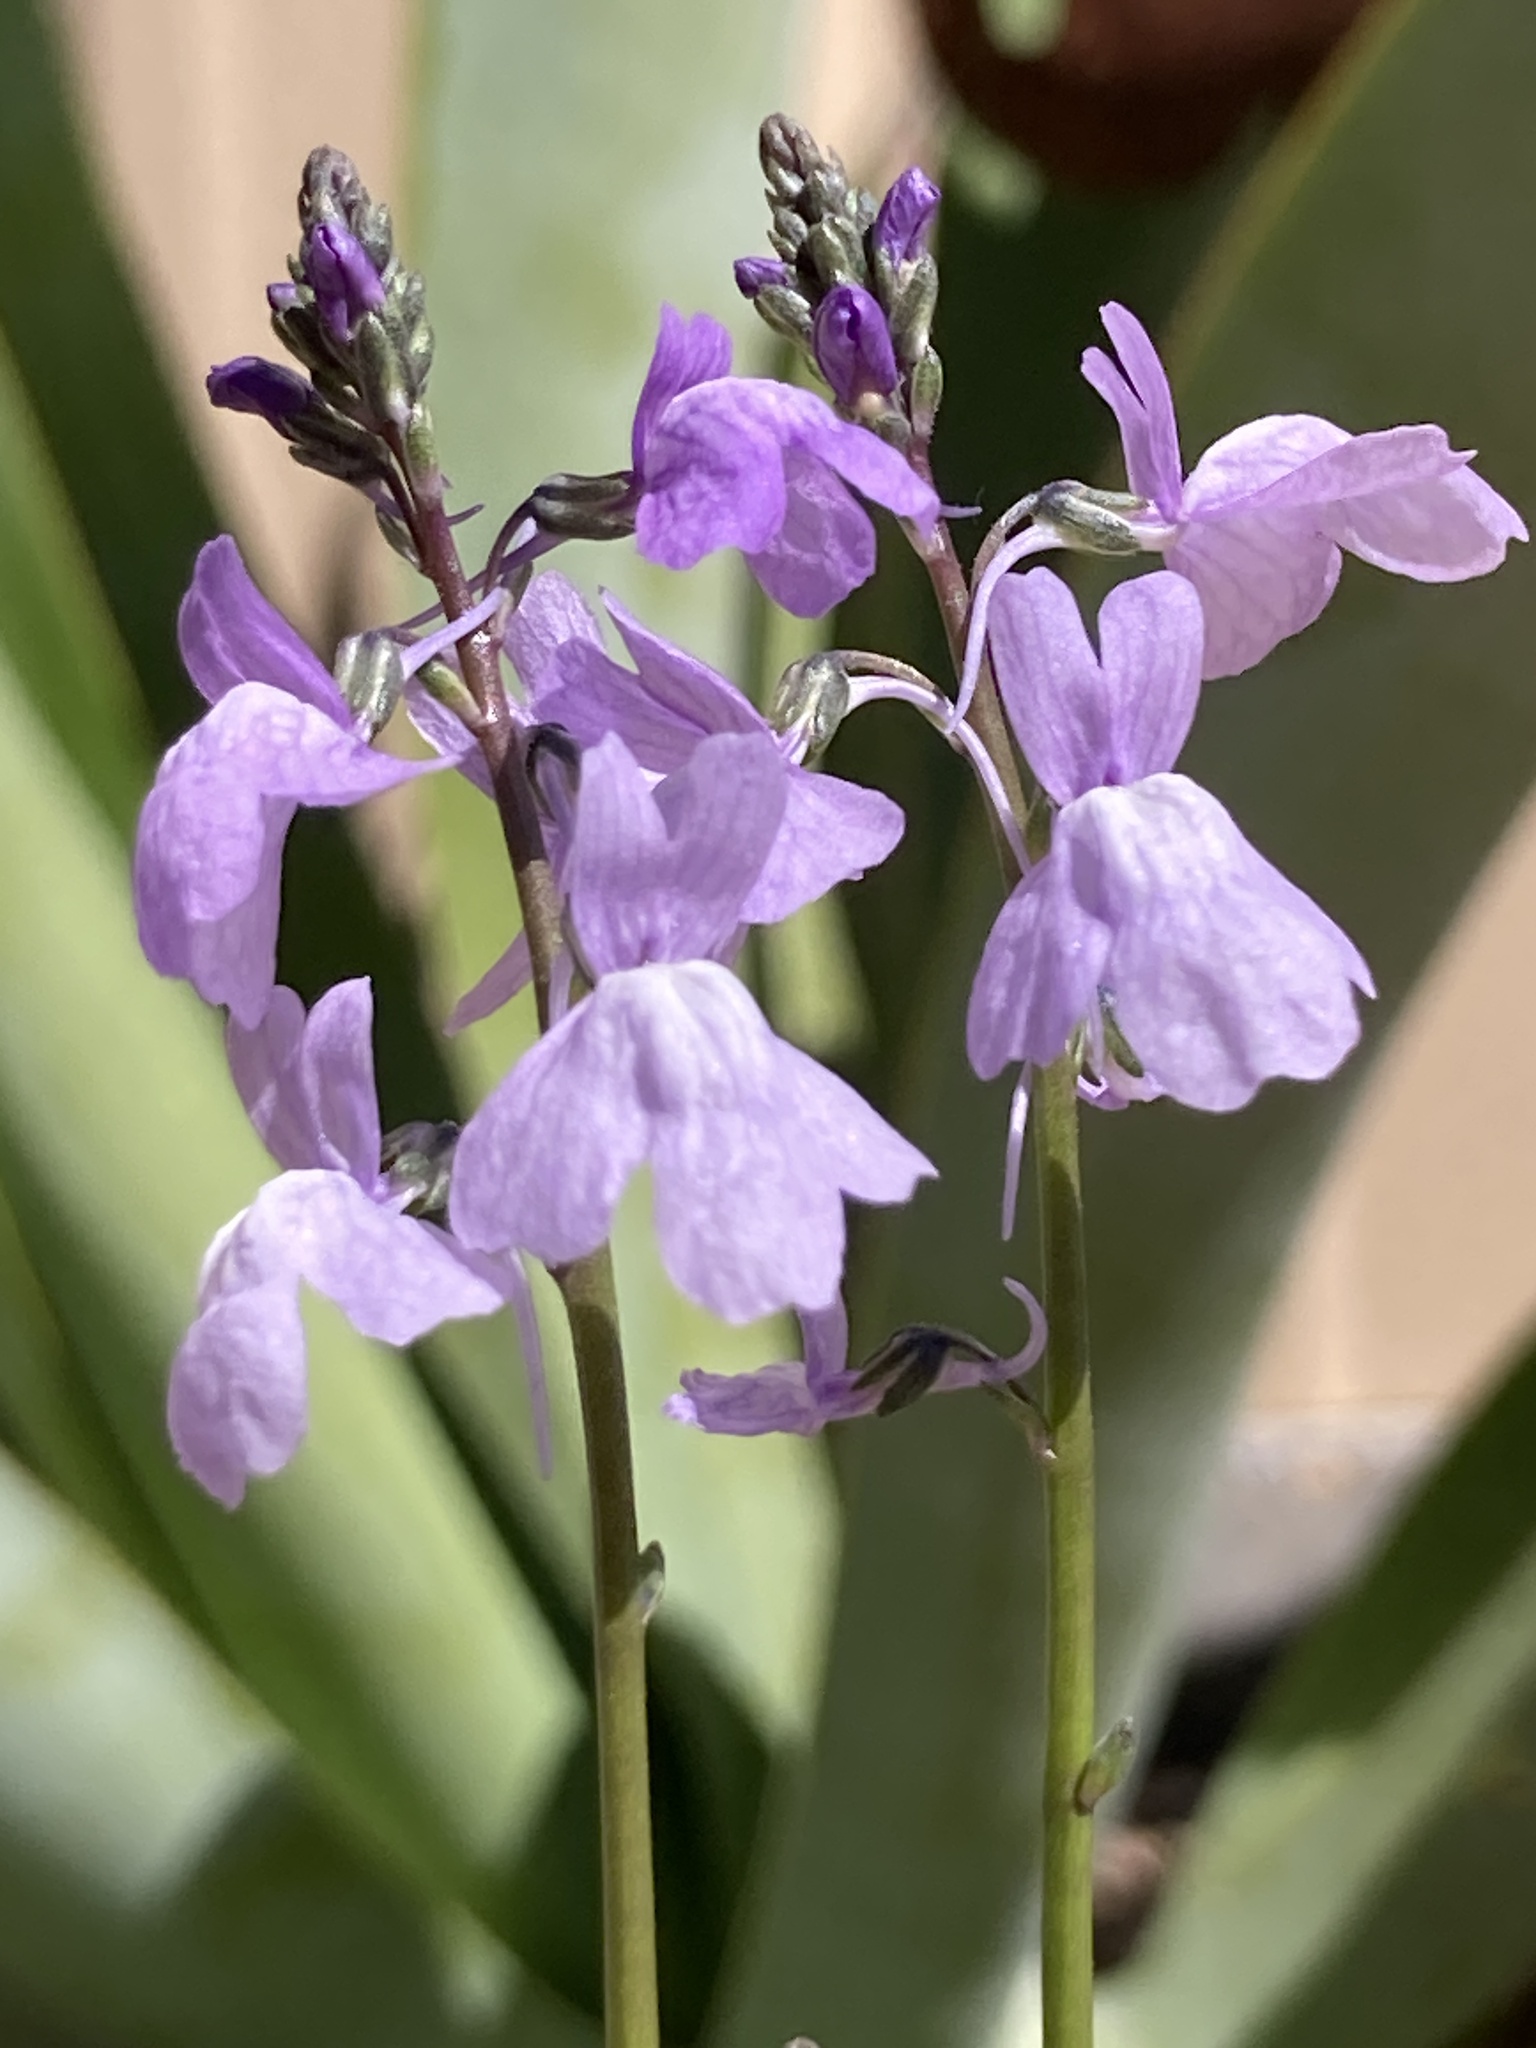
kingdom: Plantae
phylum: Tracheophyta
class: Magnoliopsida
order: Lamiales
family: Plantaginaceae
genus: Nuttallanthus
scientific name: Nuttallanthus texanus
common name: Texas toadflax
